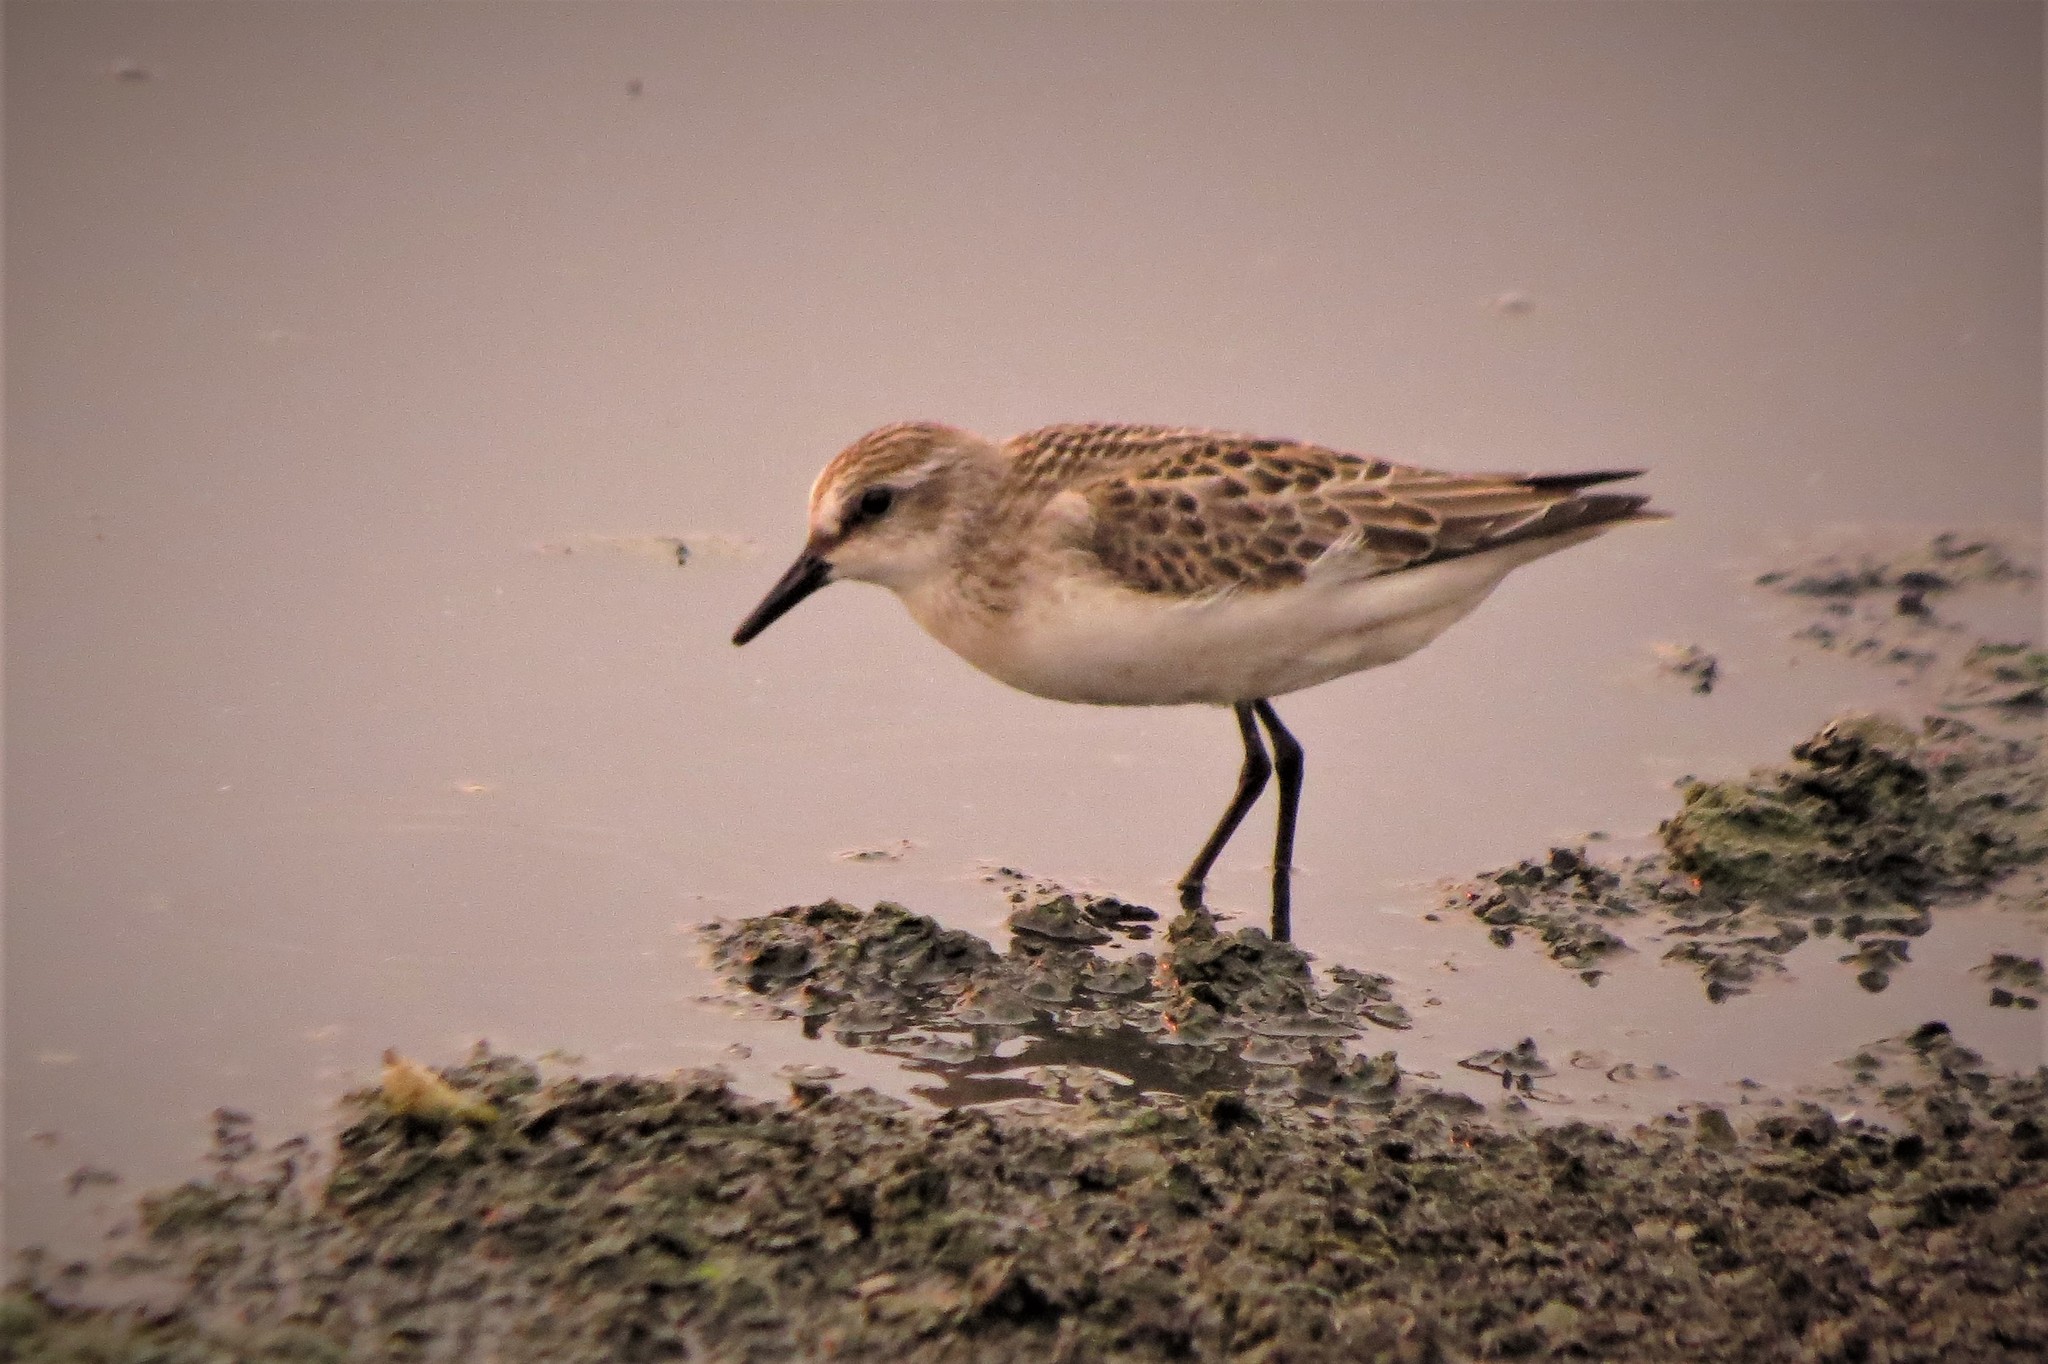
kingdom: Animalia
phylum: Chordata
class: Aves
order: Charadriiformes
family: Scolopacidae
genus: Calidris
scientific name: Calidris pusilla
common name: Semipalmated sandpiper
